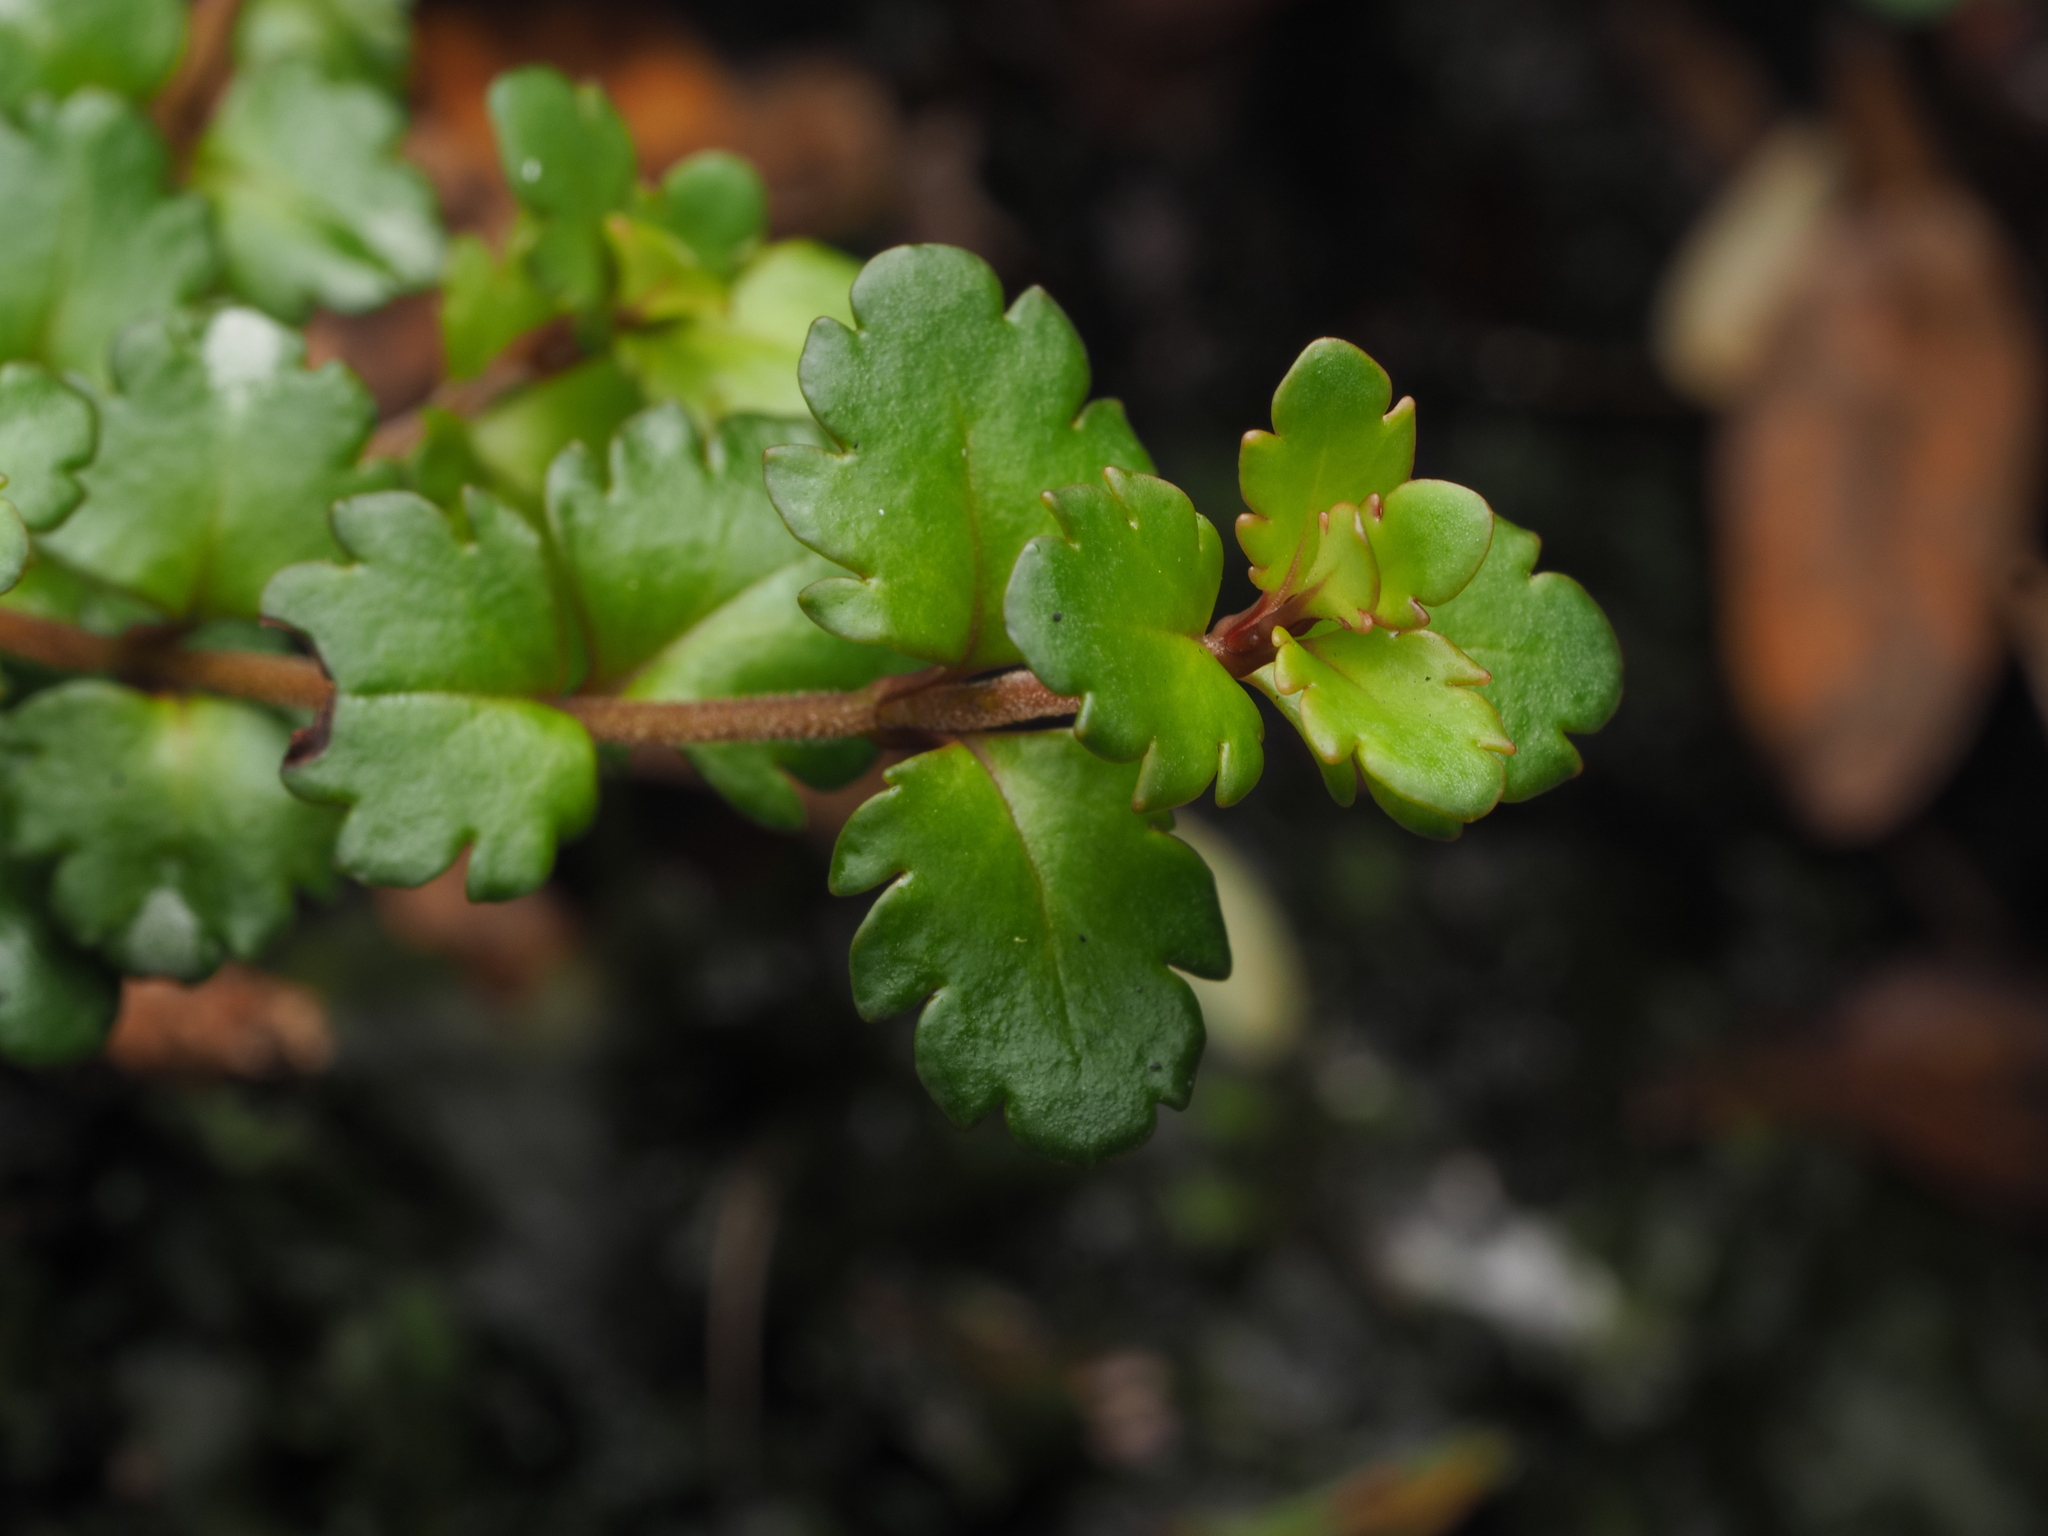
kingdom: Plantae
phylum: Tracheophyta
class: Magnoliopsida
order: Lamiales
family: Plantaginaceae
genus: Veronica
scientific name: Veronica lyallii
